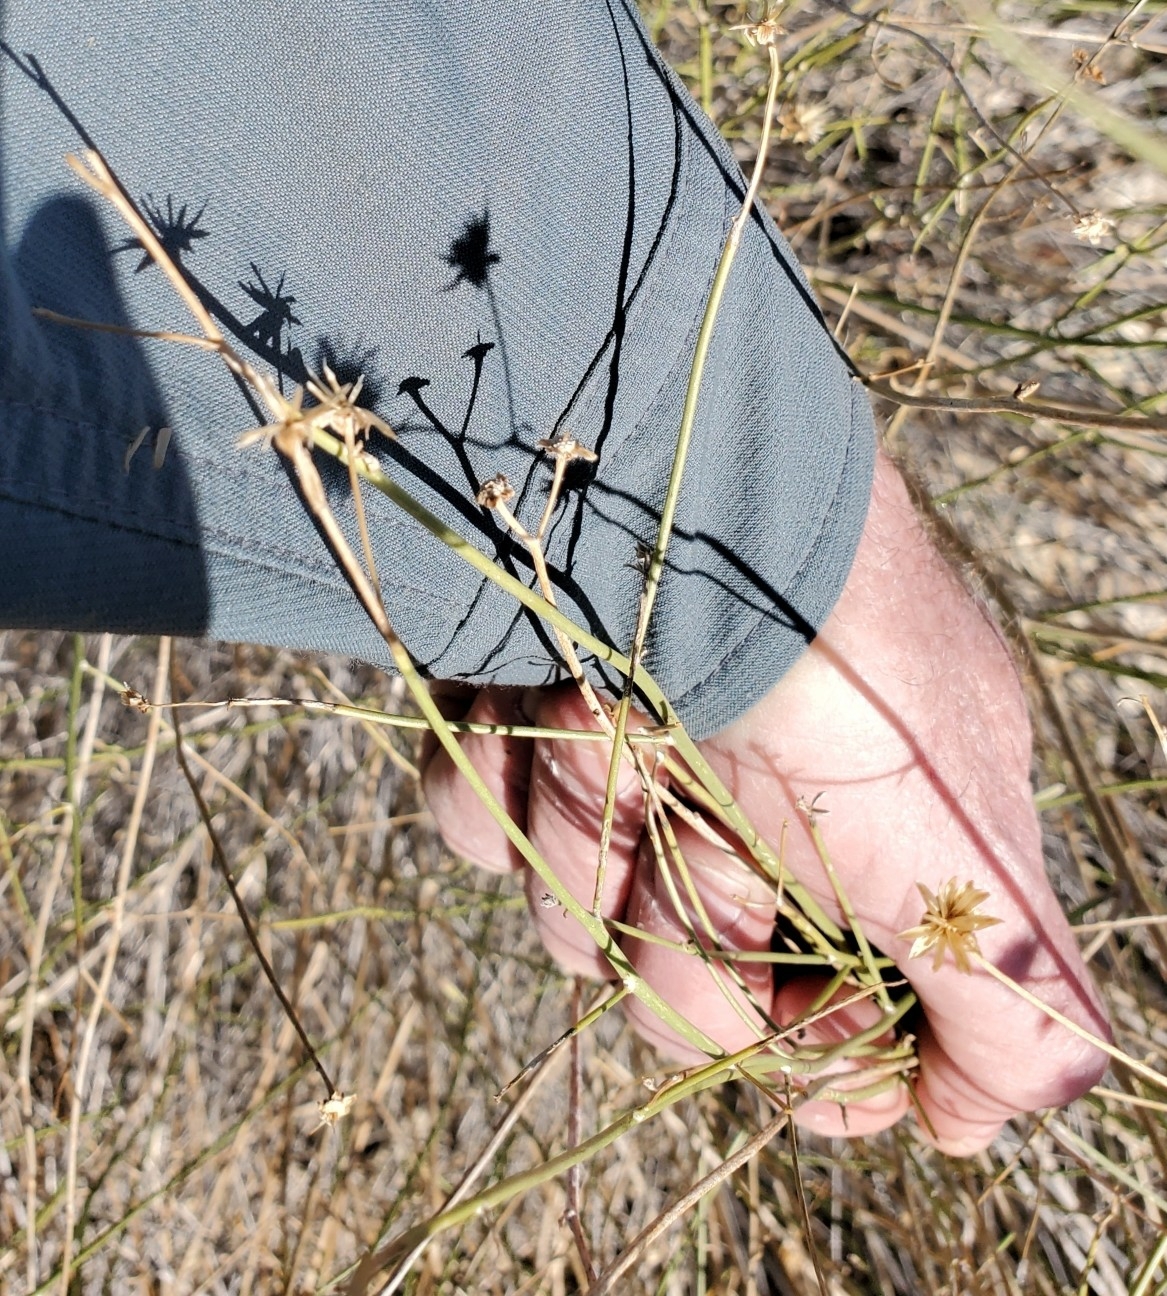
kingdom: Plantae
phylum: Tracheophyta
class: Magnoliopsida
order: Asterales
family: Asteraceae
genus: Bebbia
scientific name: Bebbia juncea
